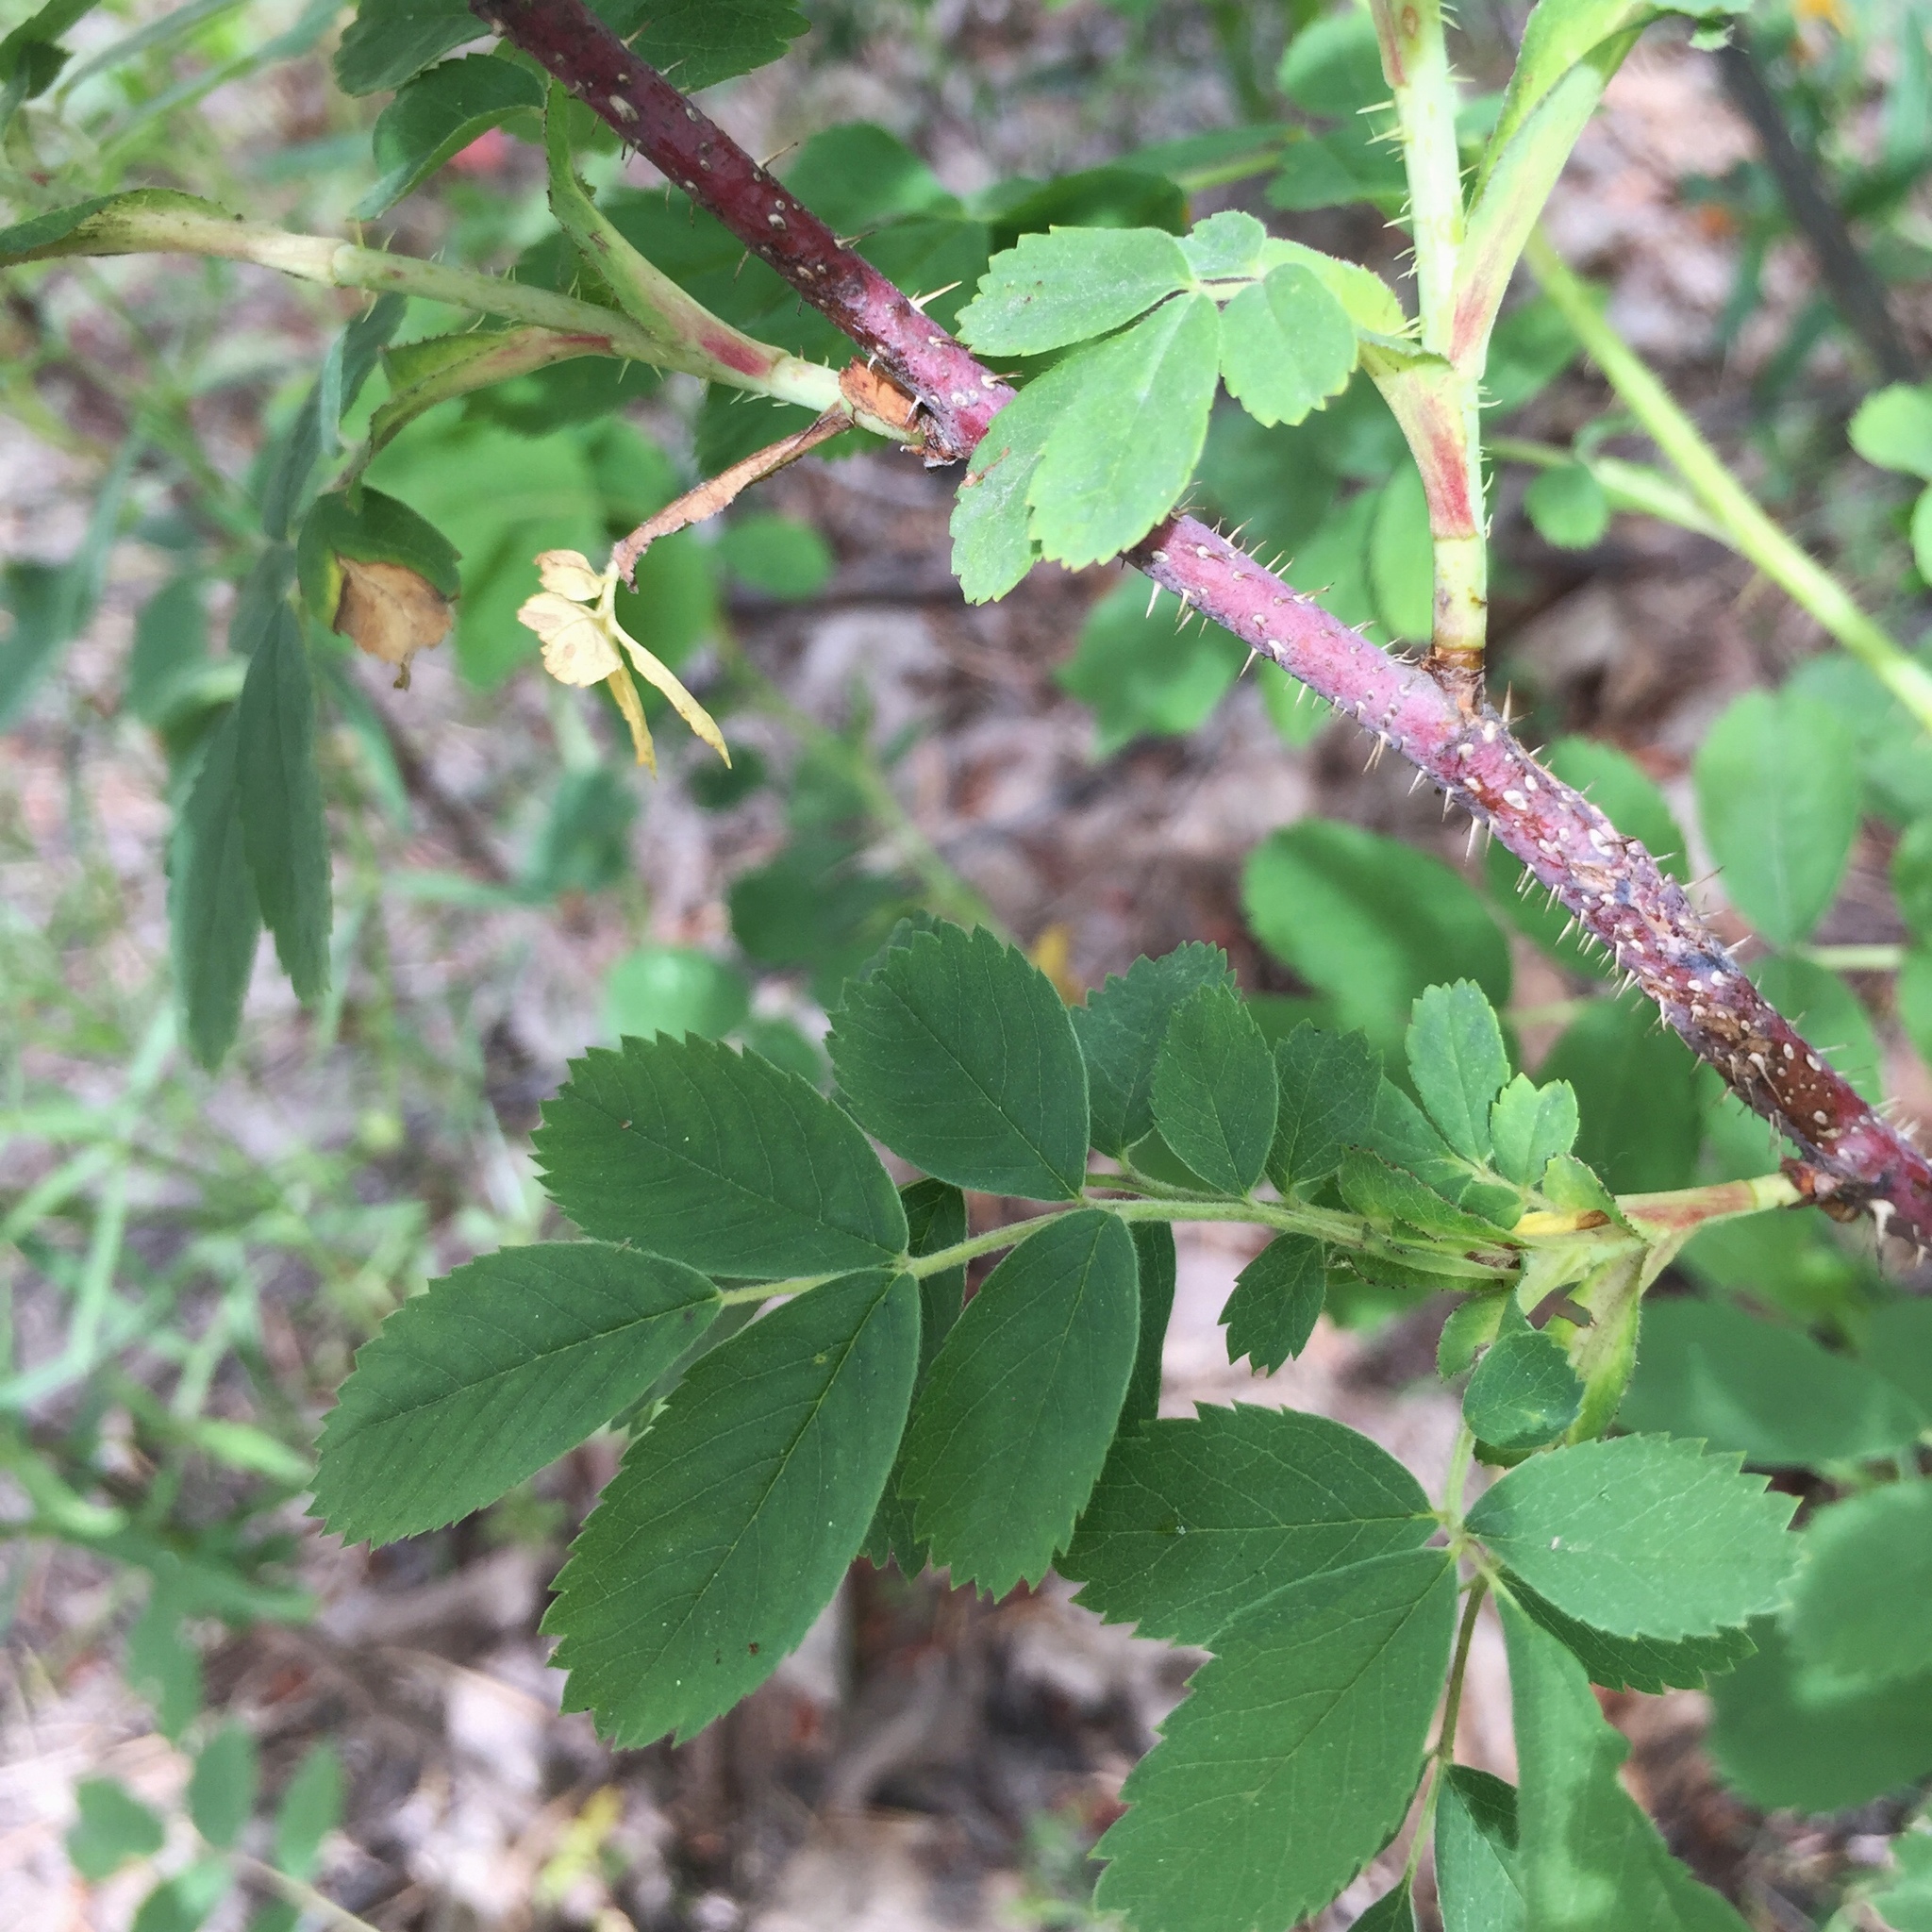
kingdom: Plantae
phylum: Tracheophyta
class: Magnoliopsida
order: Rosales
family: Rosaceae
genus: Rosa
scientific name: Rosa acicularis
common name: Prickly rose
